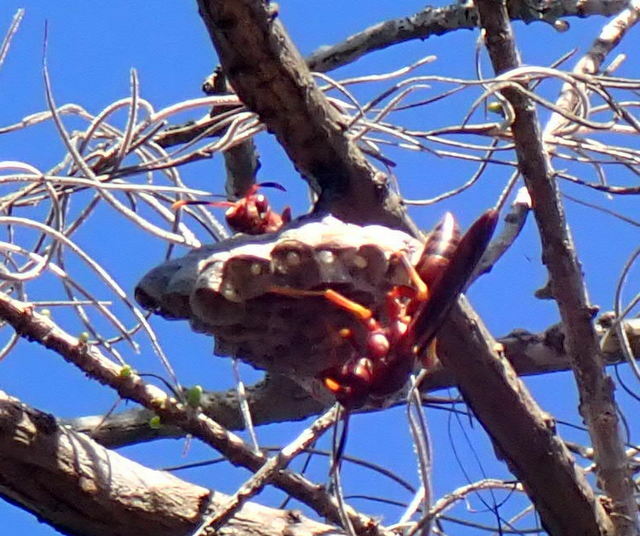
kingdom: Animalia
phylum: Arthropoda
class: Insecta
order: Hymenoptera
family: Eumenidae
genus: Polistes
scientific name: Polistes annularis
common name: Ringed paper wasp
